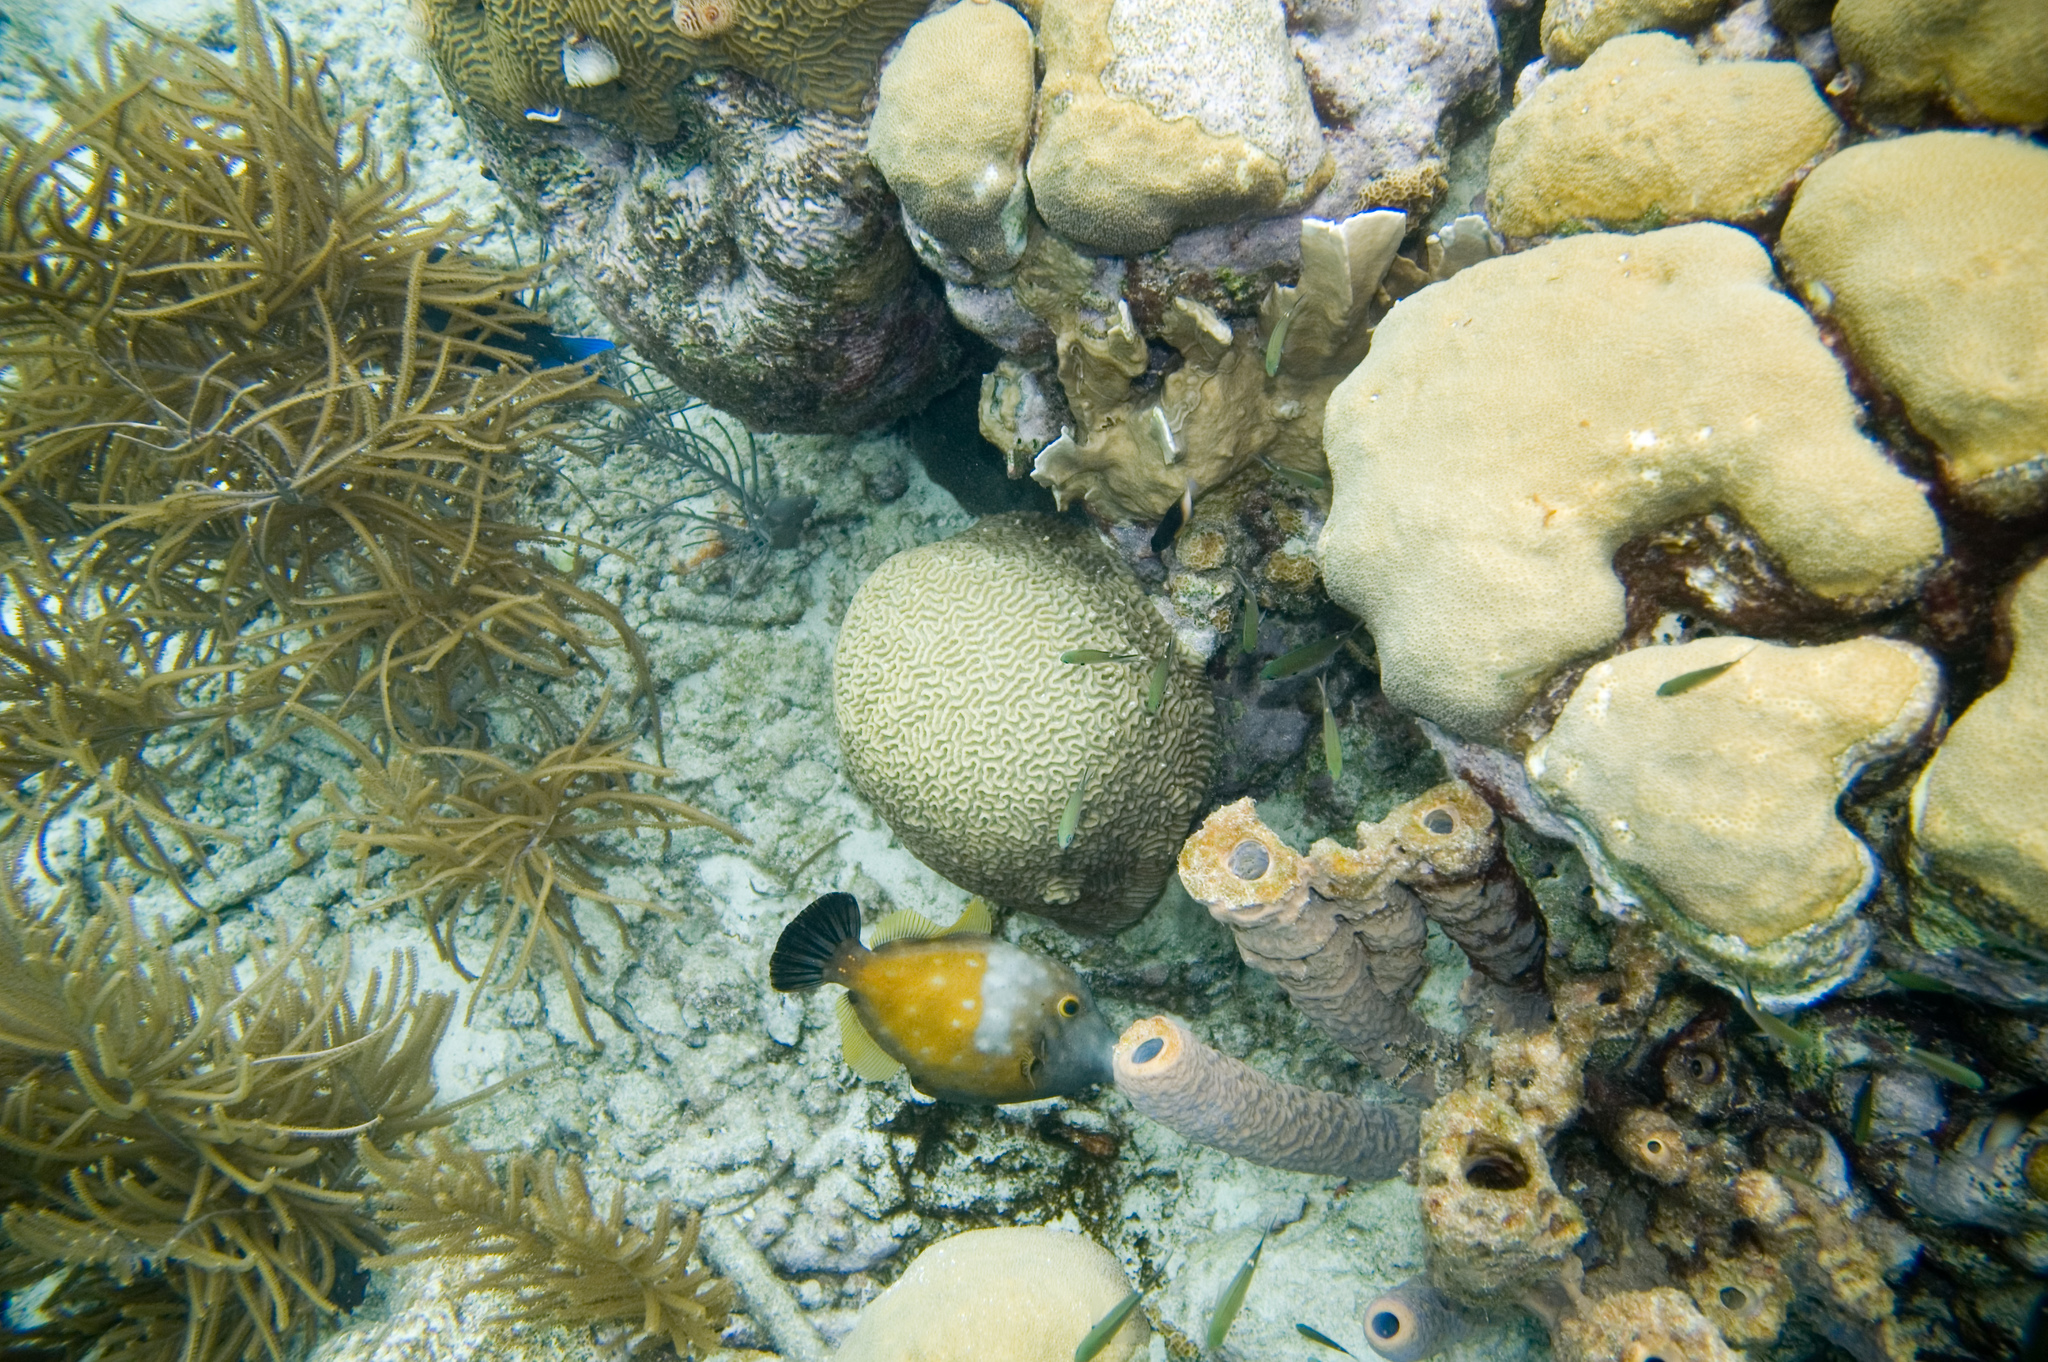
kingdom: Animalia
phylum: Chordata
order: Tetraodontiformes
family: Monacanthidae
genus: Cantherhines
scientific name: Cantherhines macrocerus
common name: Whitespotted filefish
